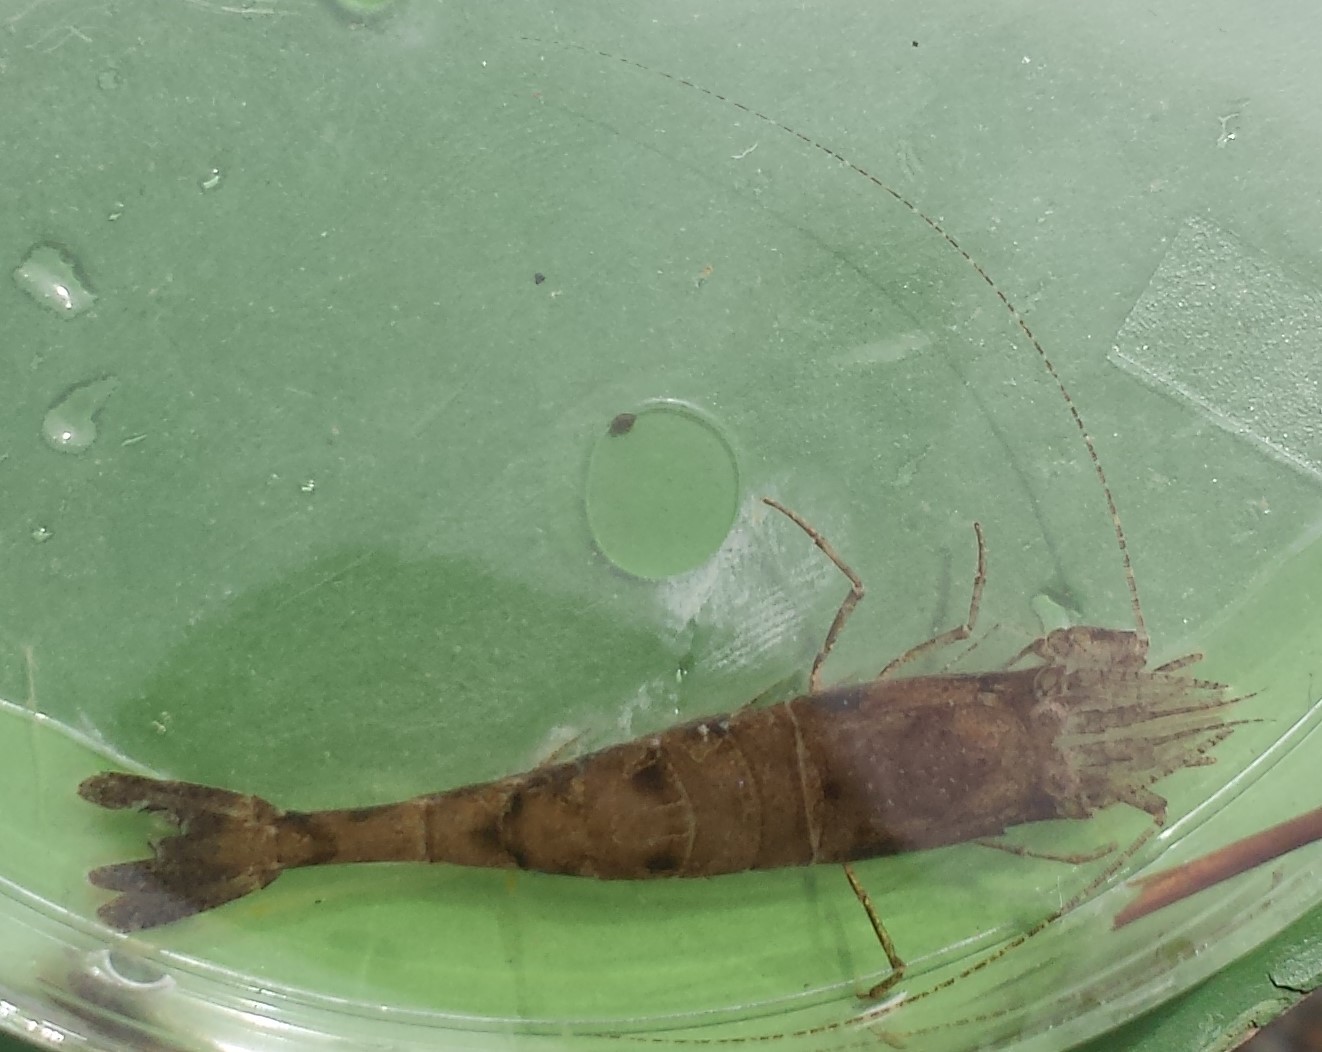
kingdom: Animalia
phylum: Arthropoda
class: Malacostraca
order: Decapoda
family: Crangonidae
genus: Crangon
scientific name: Crangon septemspinosa
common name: Bail shrimp
